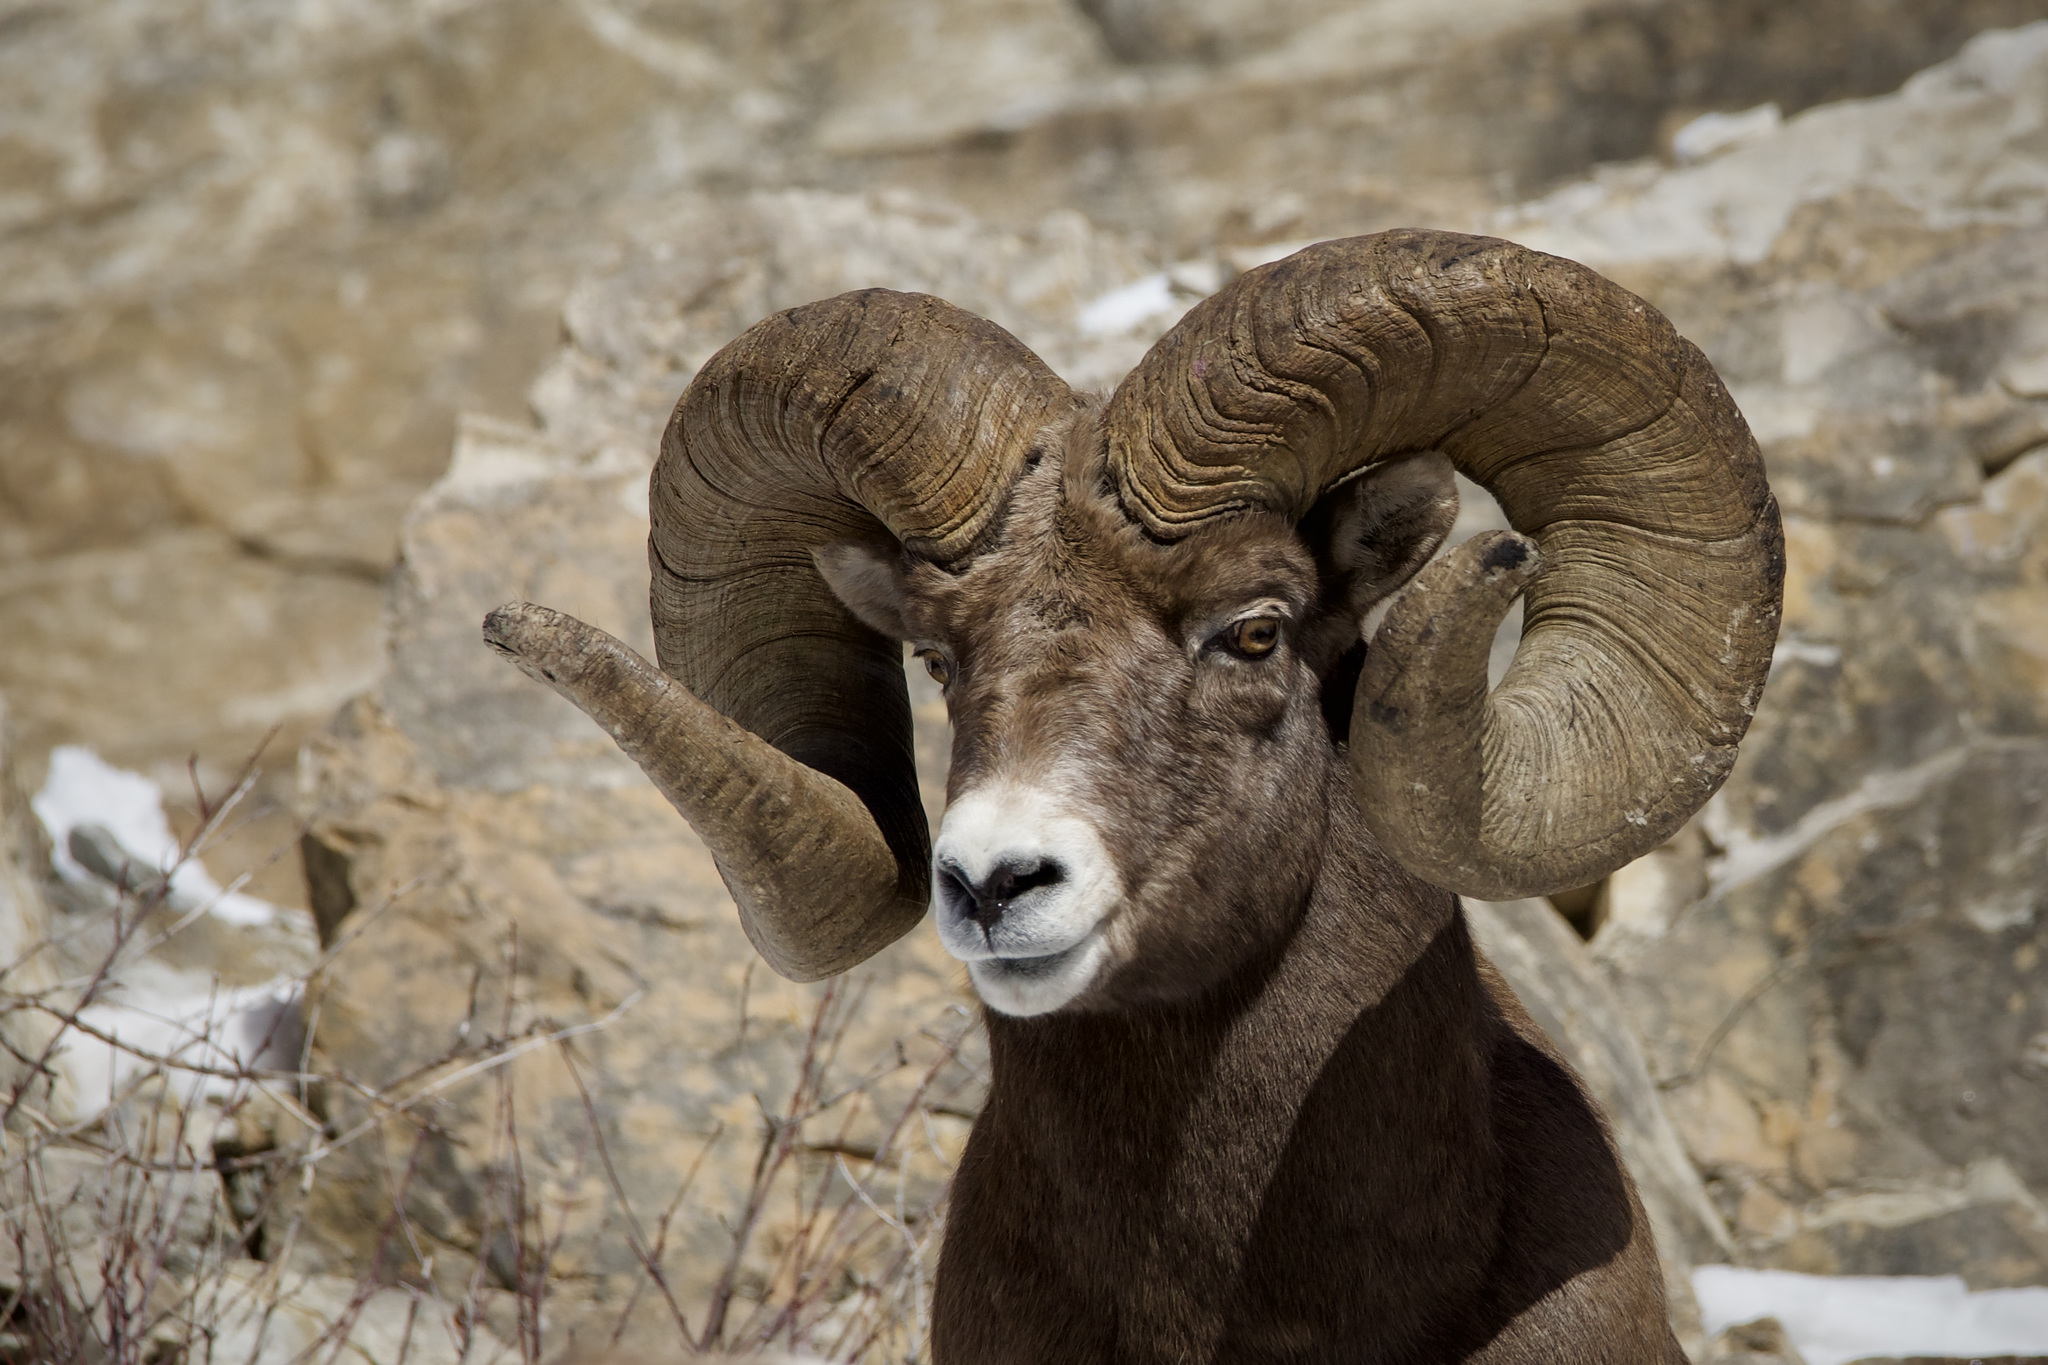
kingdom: Animalia
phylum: Chordata
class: Mammalia
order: Artiodactyla
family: Bovidae
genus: Ovis
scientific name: Ovis canadensis
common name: Bighorn sheep
